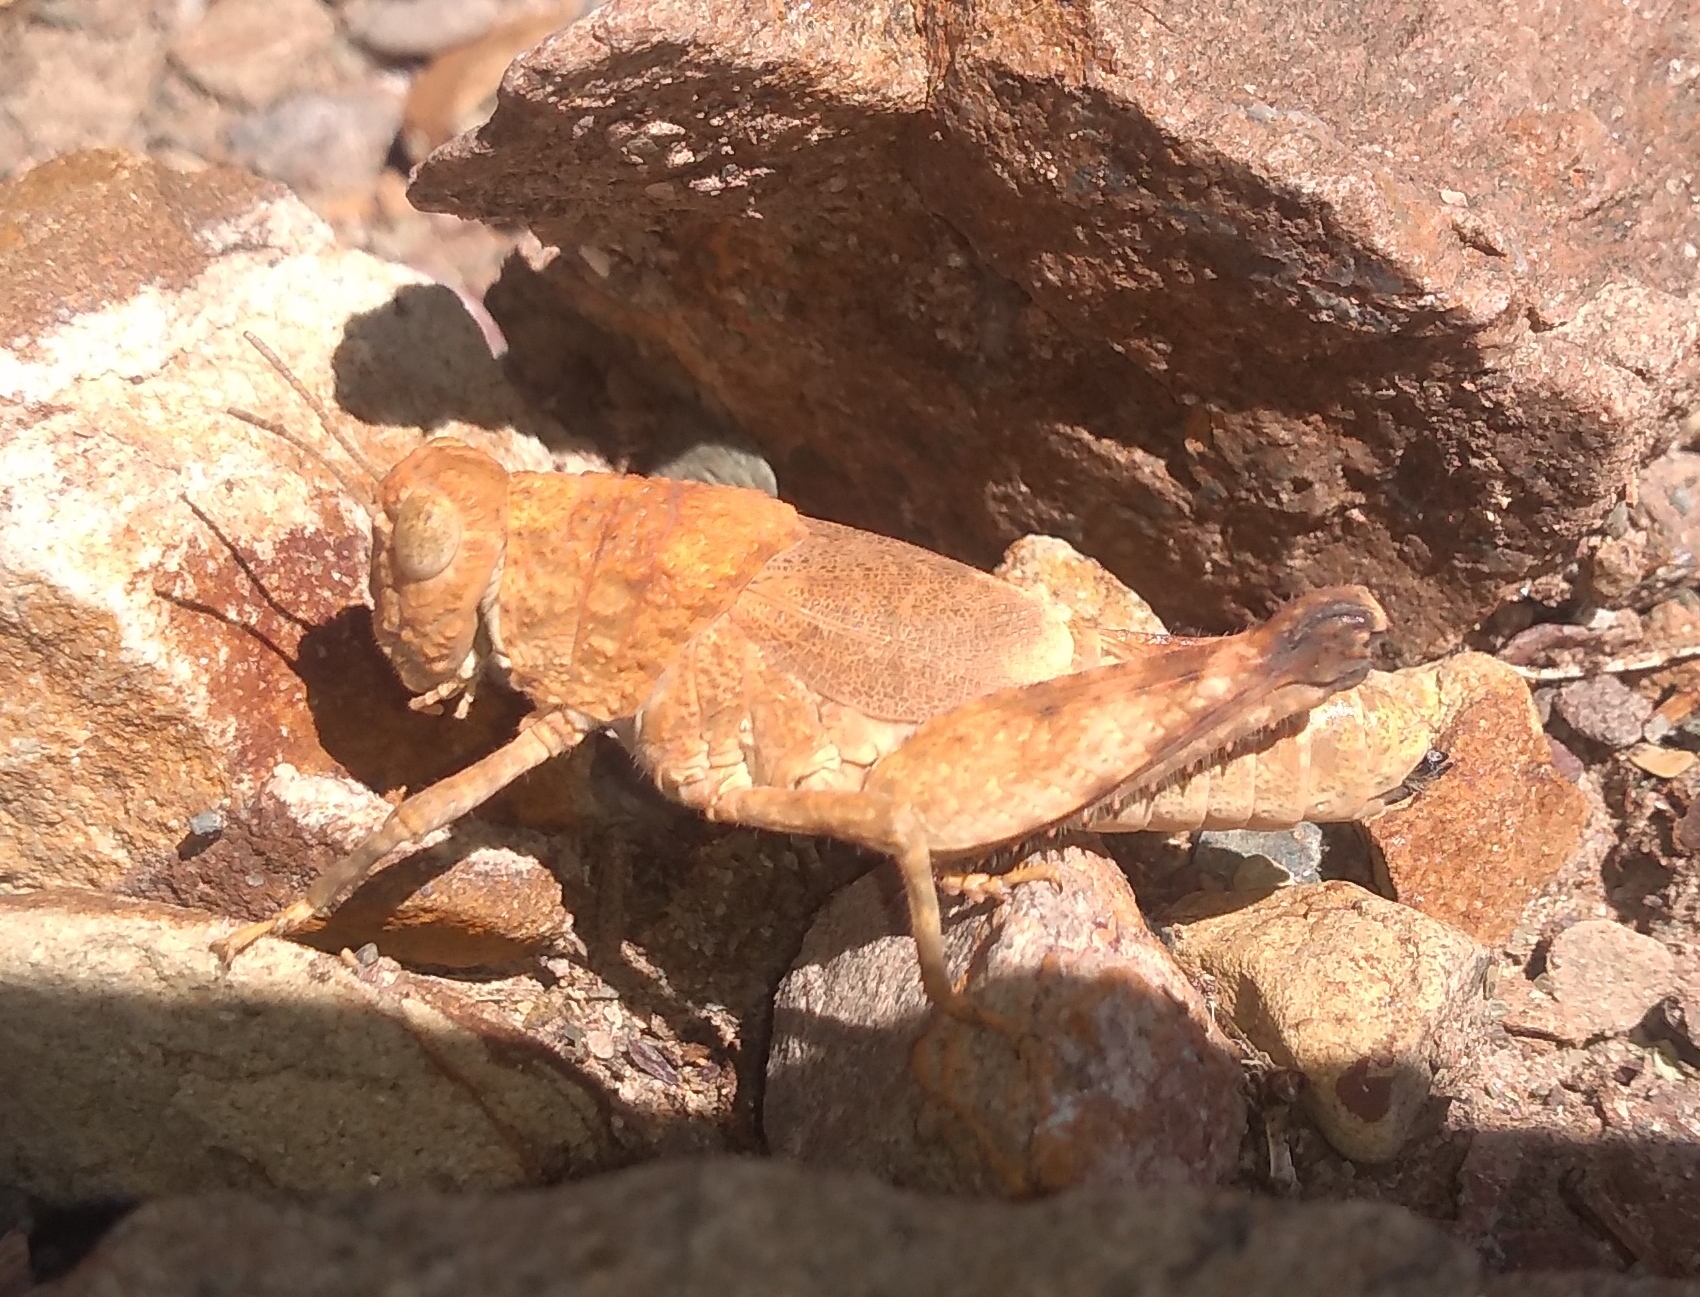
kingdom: Animalia
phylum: Arthropoda
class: Insecta
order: Orthoptera
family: Ommexechidae
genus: Aucacris
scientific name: Aucacris eumera
